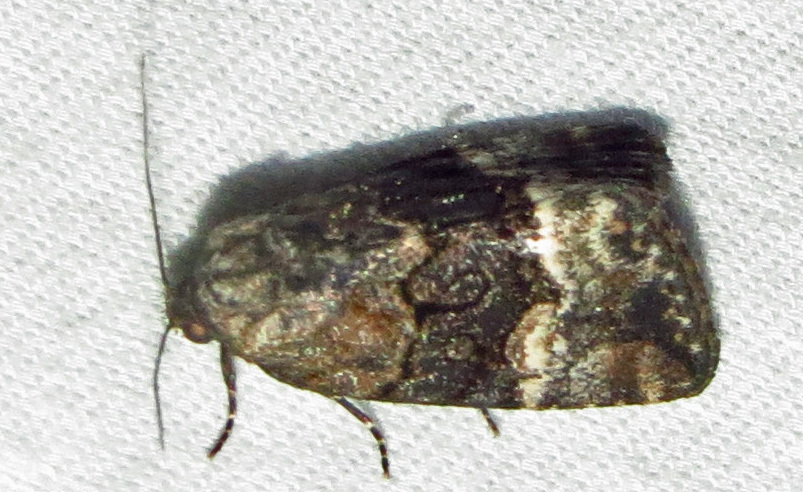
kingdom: Animalia
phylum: Arthropoda
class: Insecta
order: Lepidoptera
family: Noctuidae
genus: Elaphria
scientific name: Elaphria georgei
